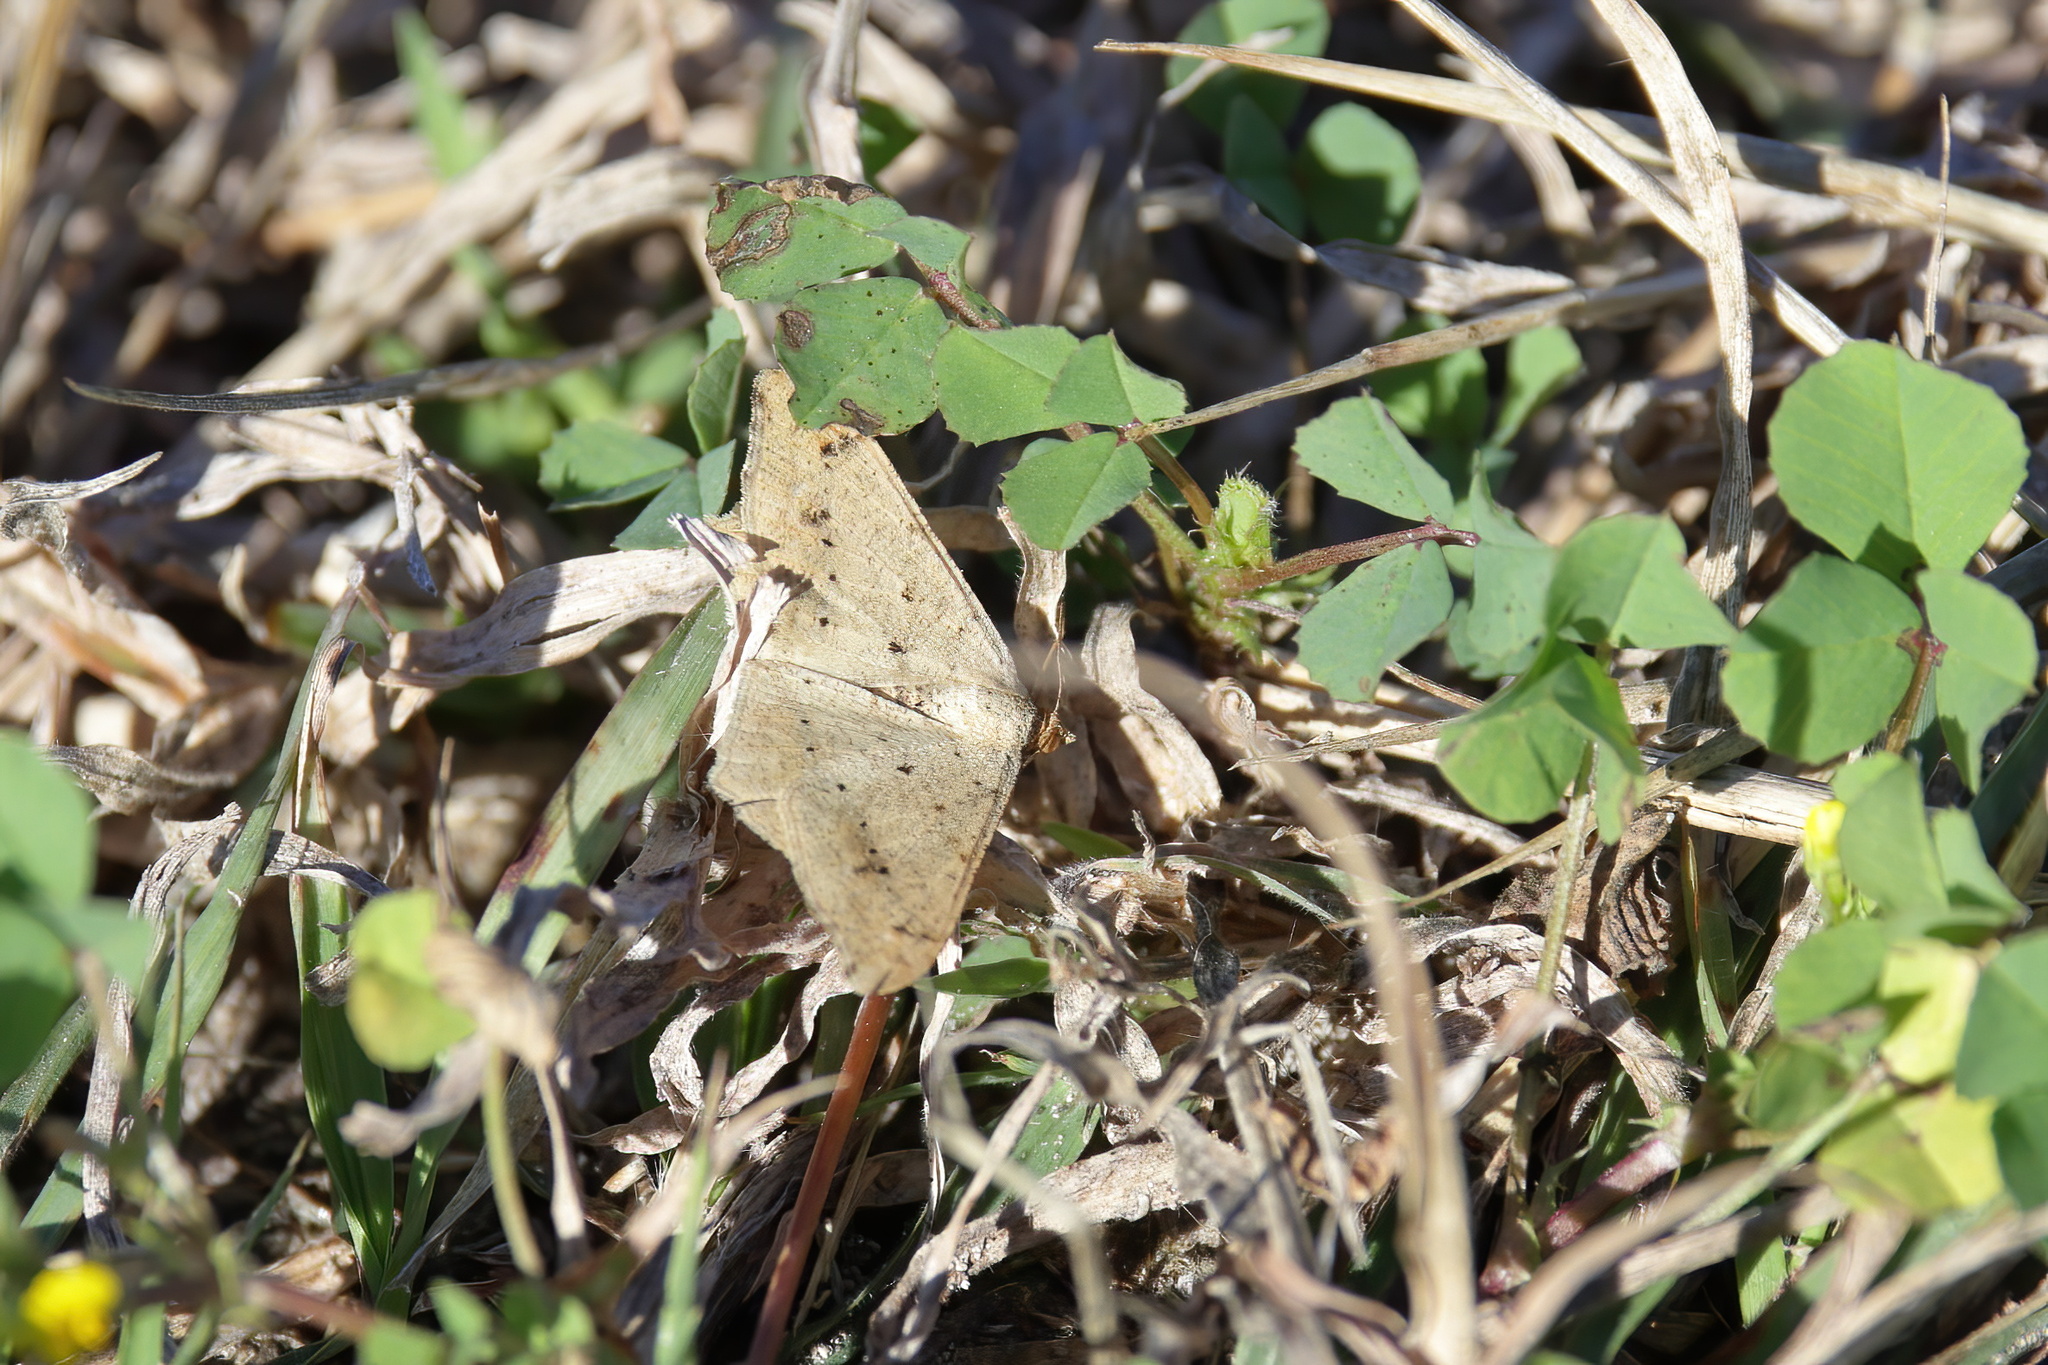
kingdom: Animalia
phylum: Arthropoda
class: Insecta
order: Lepidoptera
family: Geometridae
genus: Macaria
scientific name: Macaria abydata
